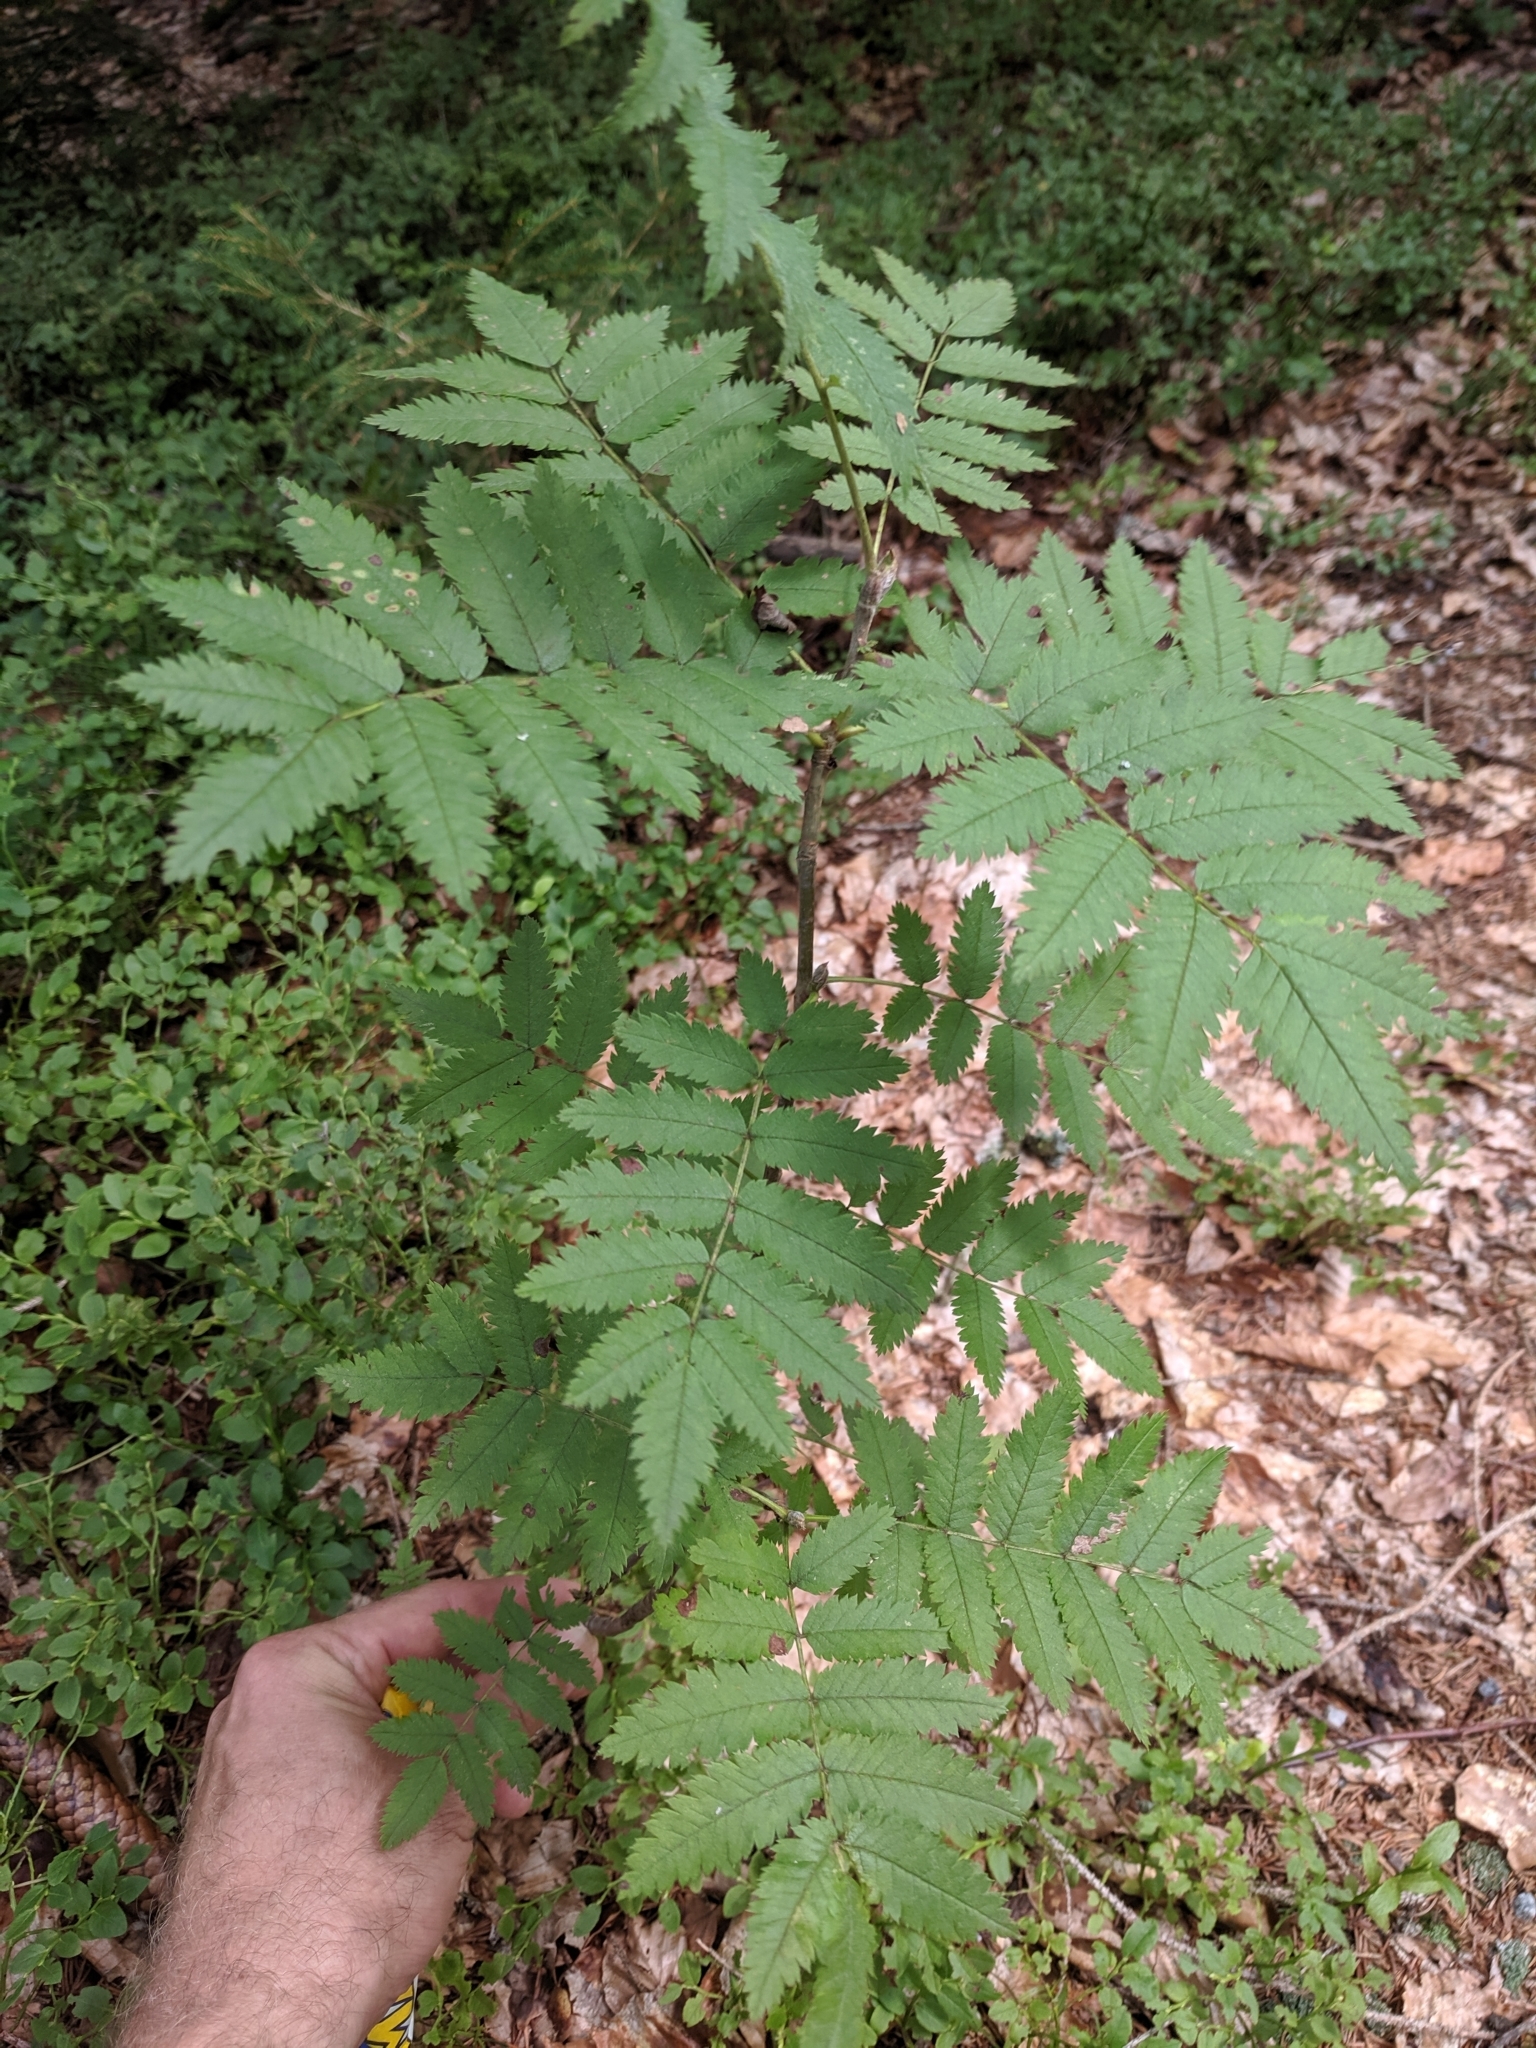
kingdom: Plantae
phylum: Tracheophyta
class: Magnoliopsida
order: Rosales
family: Rosaceae
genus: Sorbus
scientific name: Sorbus aucuparia
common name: Rowan
